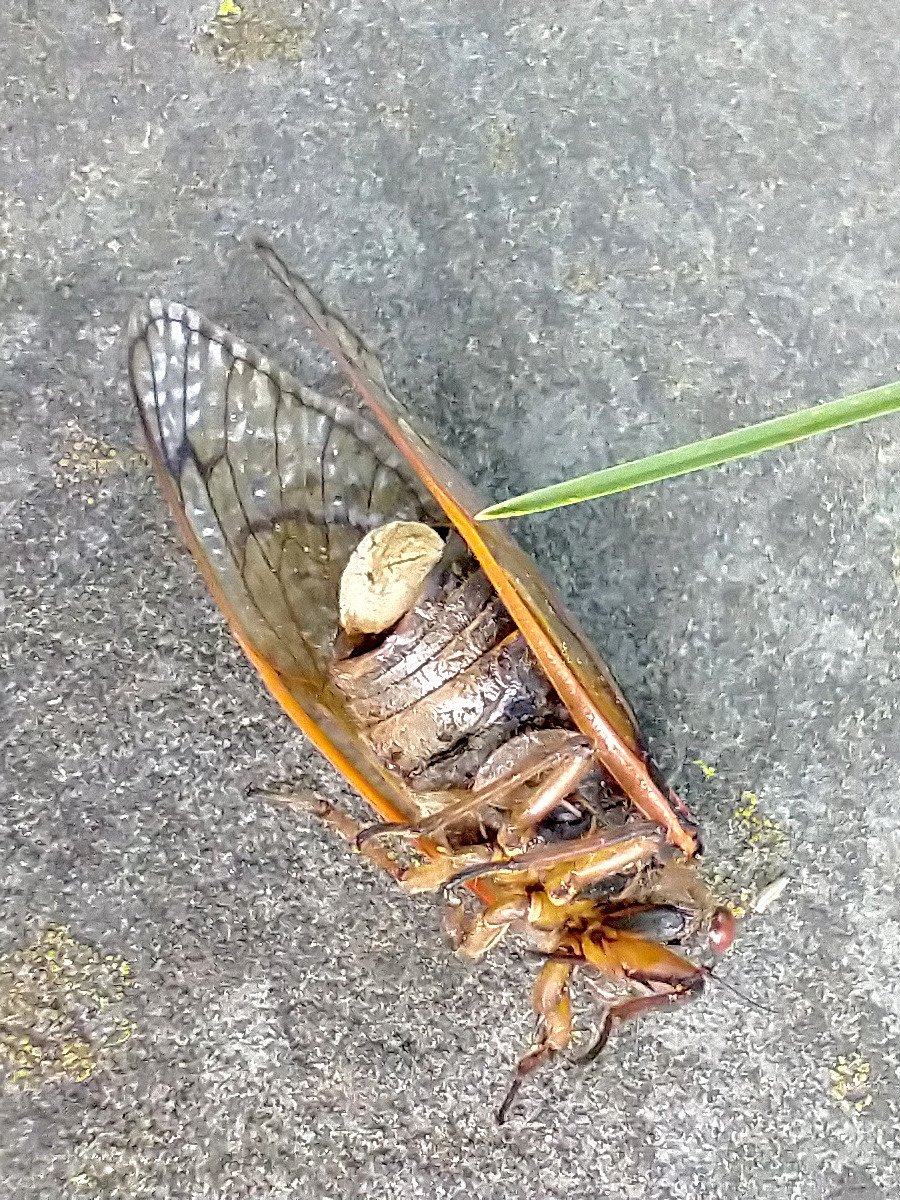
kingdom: Fungi
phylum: Entomophthoromycota
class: Entomophthoromycetes
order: Entomophthorales
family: Entomophthoraceae
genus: Massospora
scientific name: Massospora cicadina
